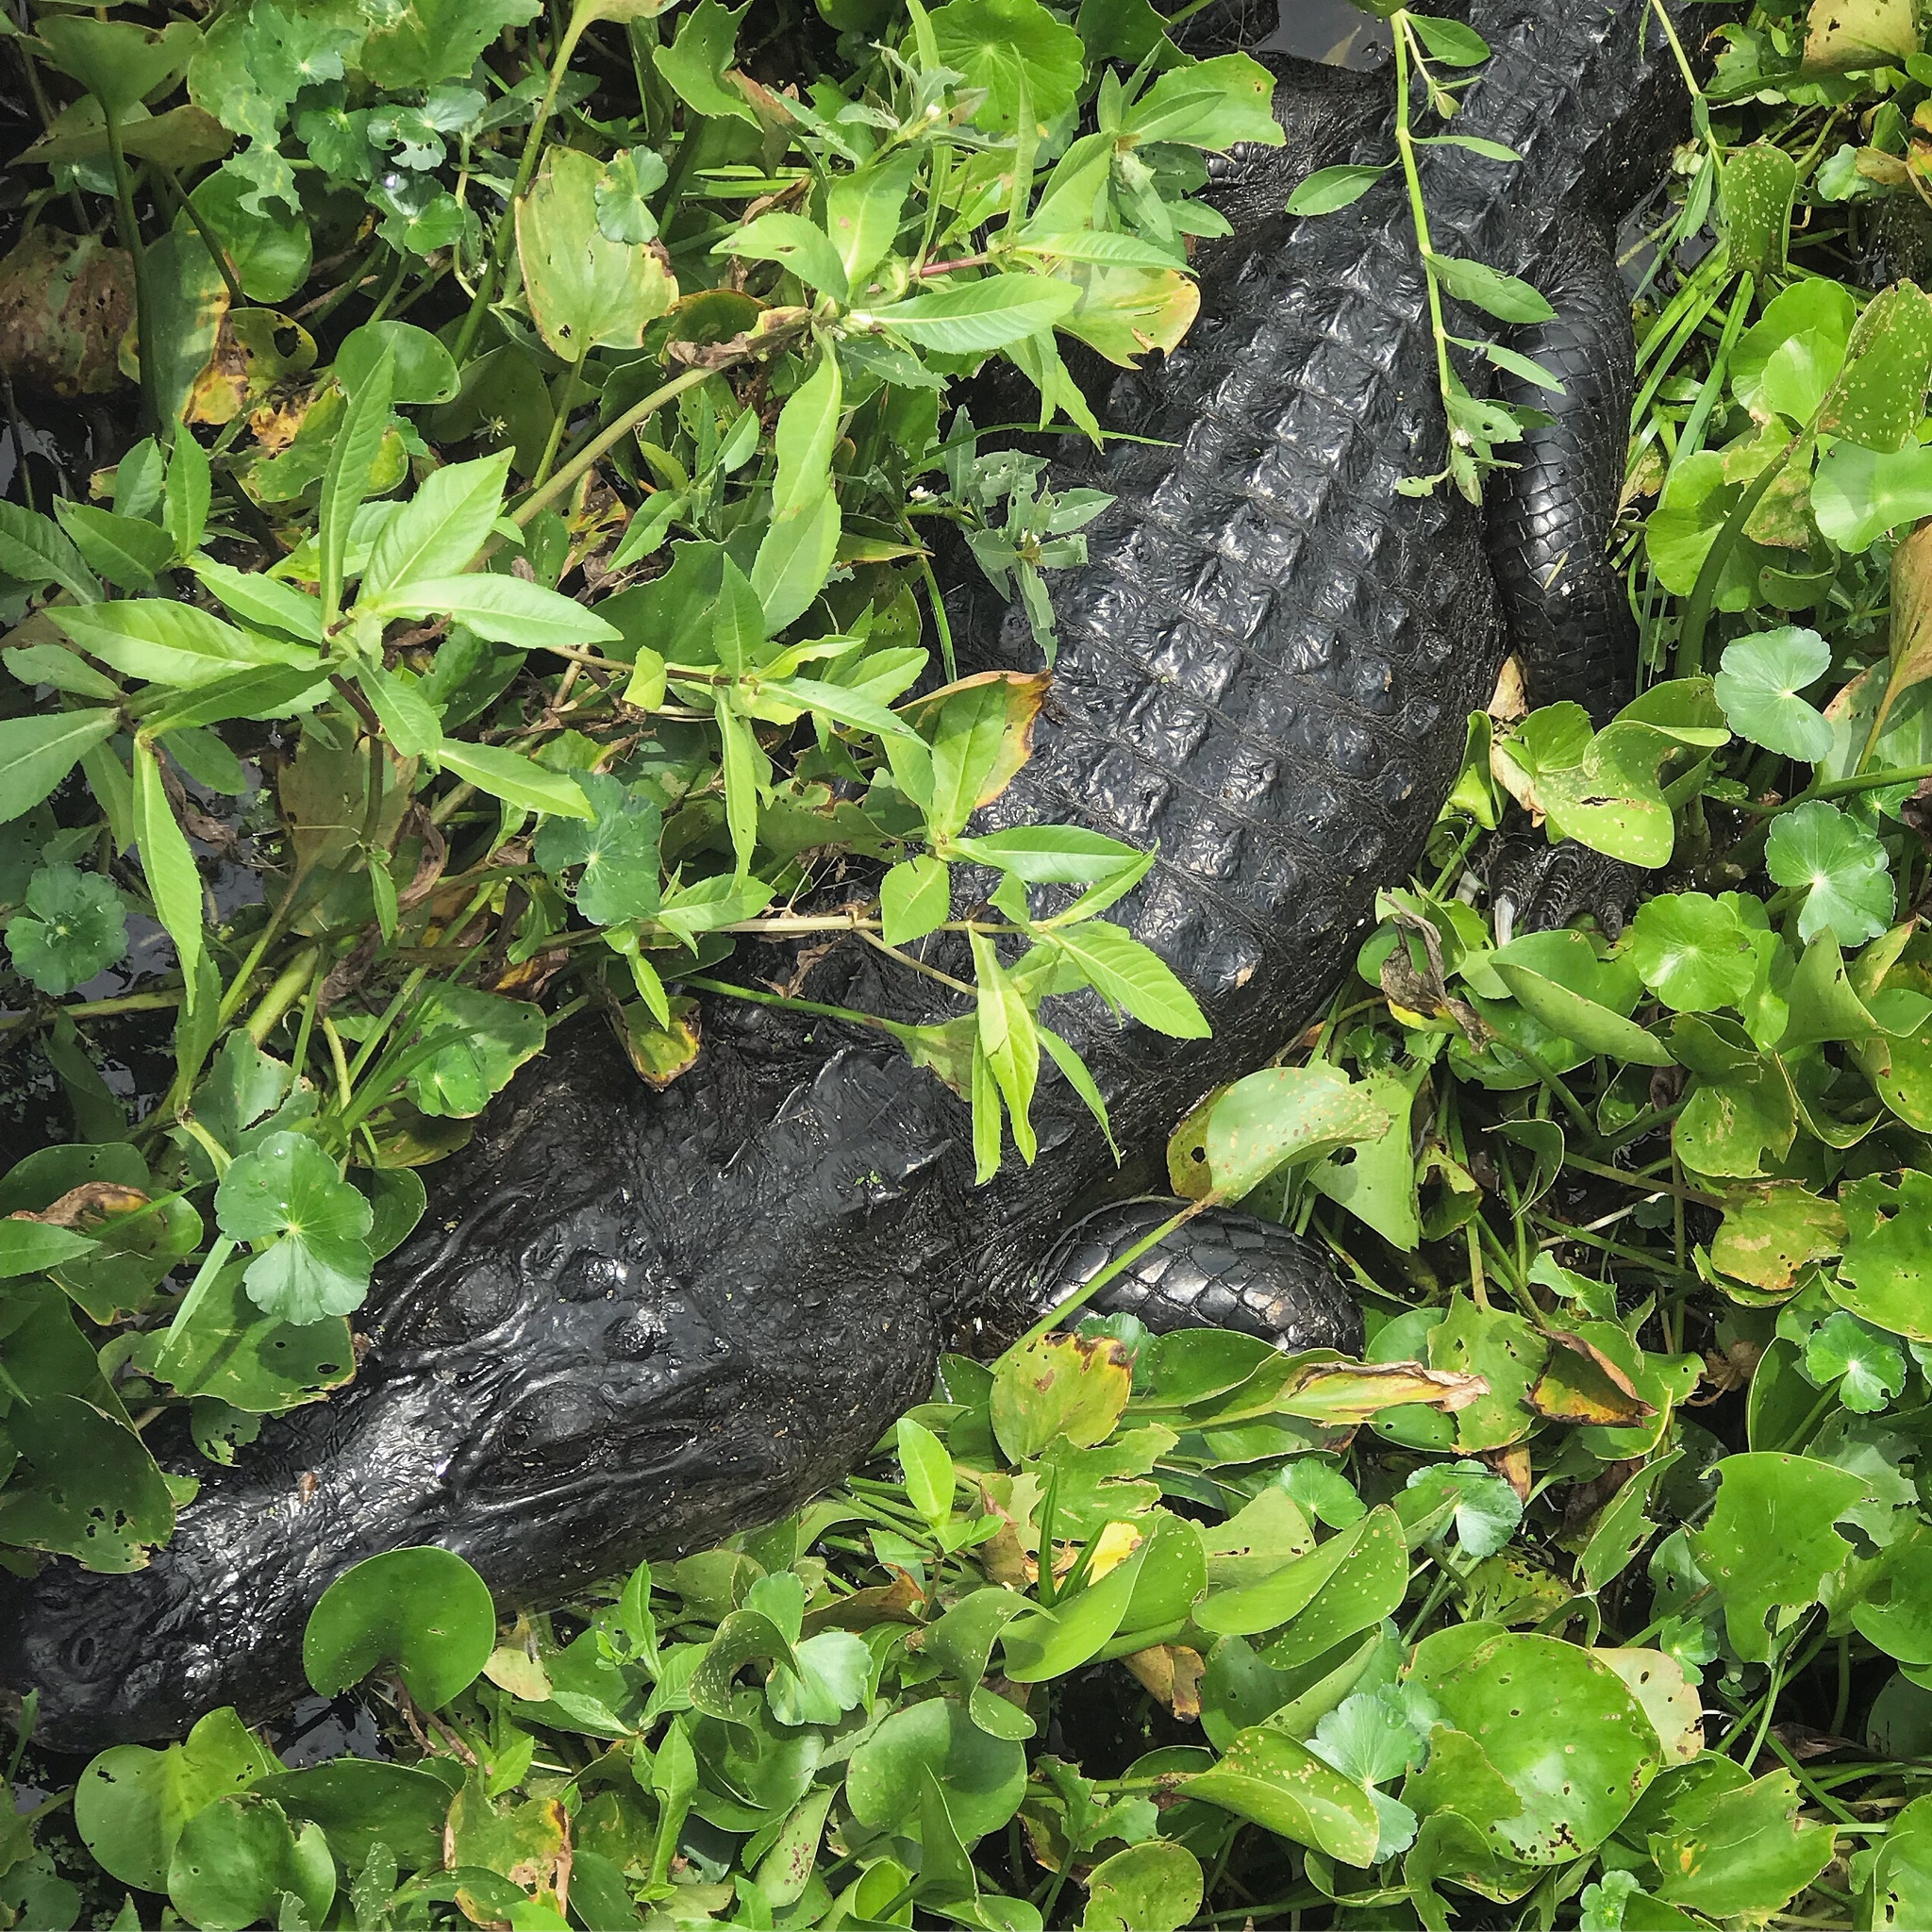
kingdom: Animalia
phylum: Chordata
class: Crocodylia
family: Alligatoridae
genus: Alligator
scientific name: Alligator mississippiensis
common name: American alligator
